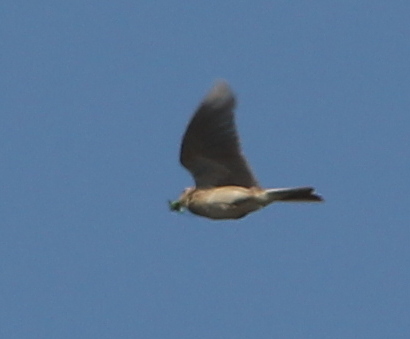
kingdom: Animalia
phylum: Chordata
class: Aves
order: Passeriformes
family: Alaudidae
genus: Alauda
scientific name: Alauda arvensis
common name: Eurasian skylark
